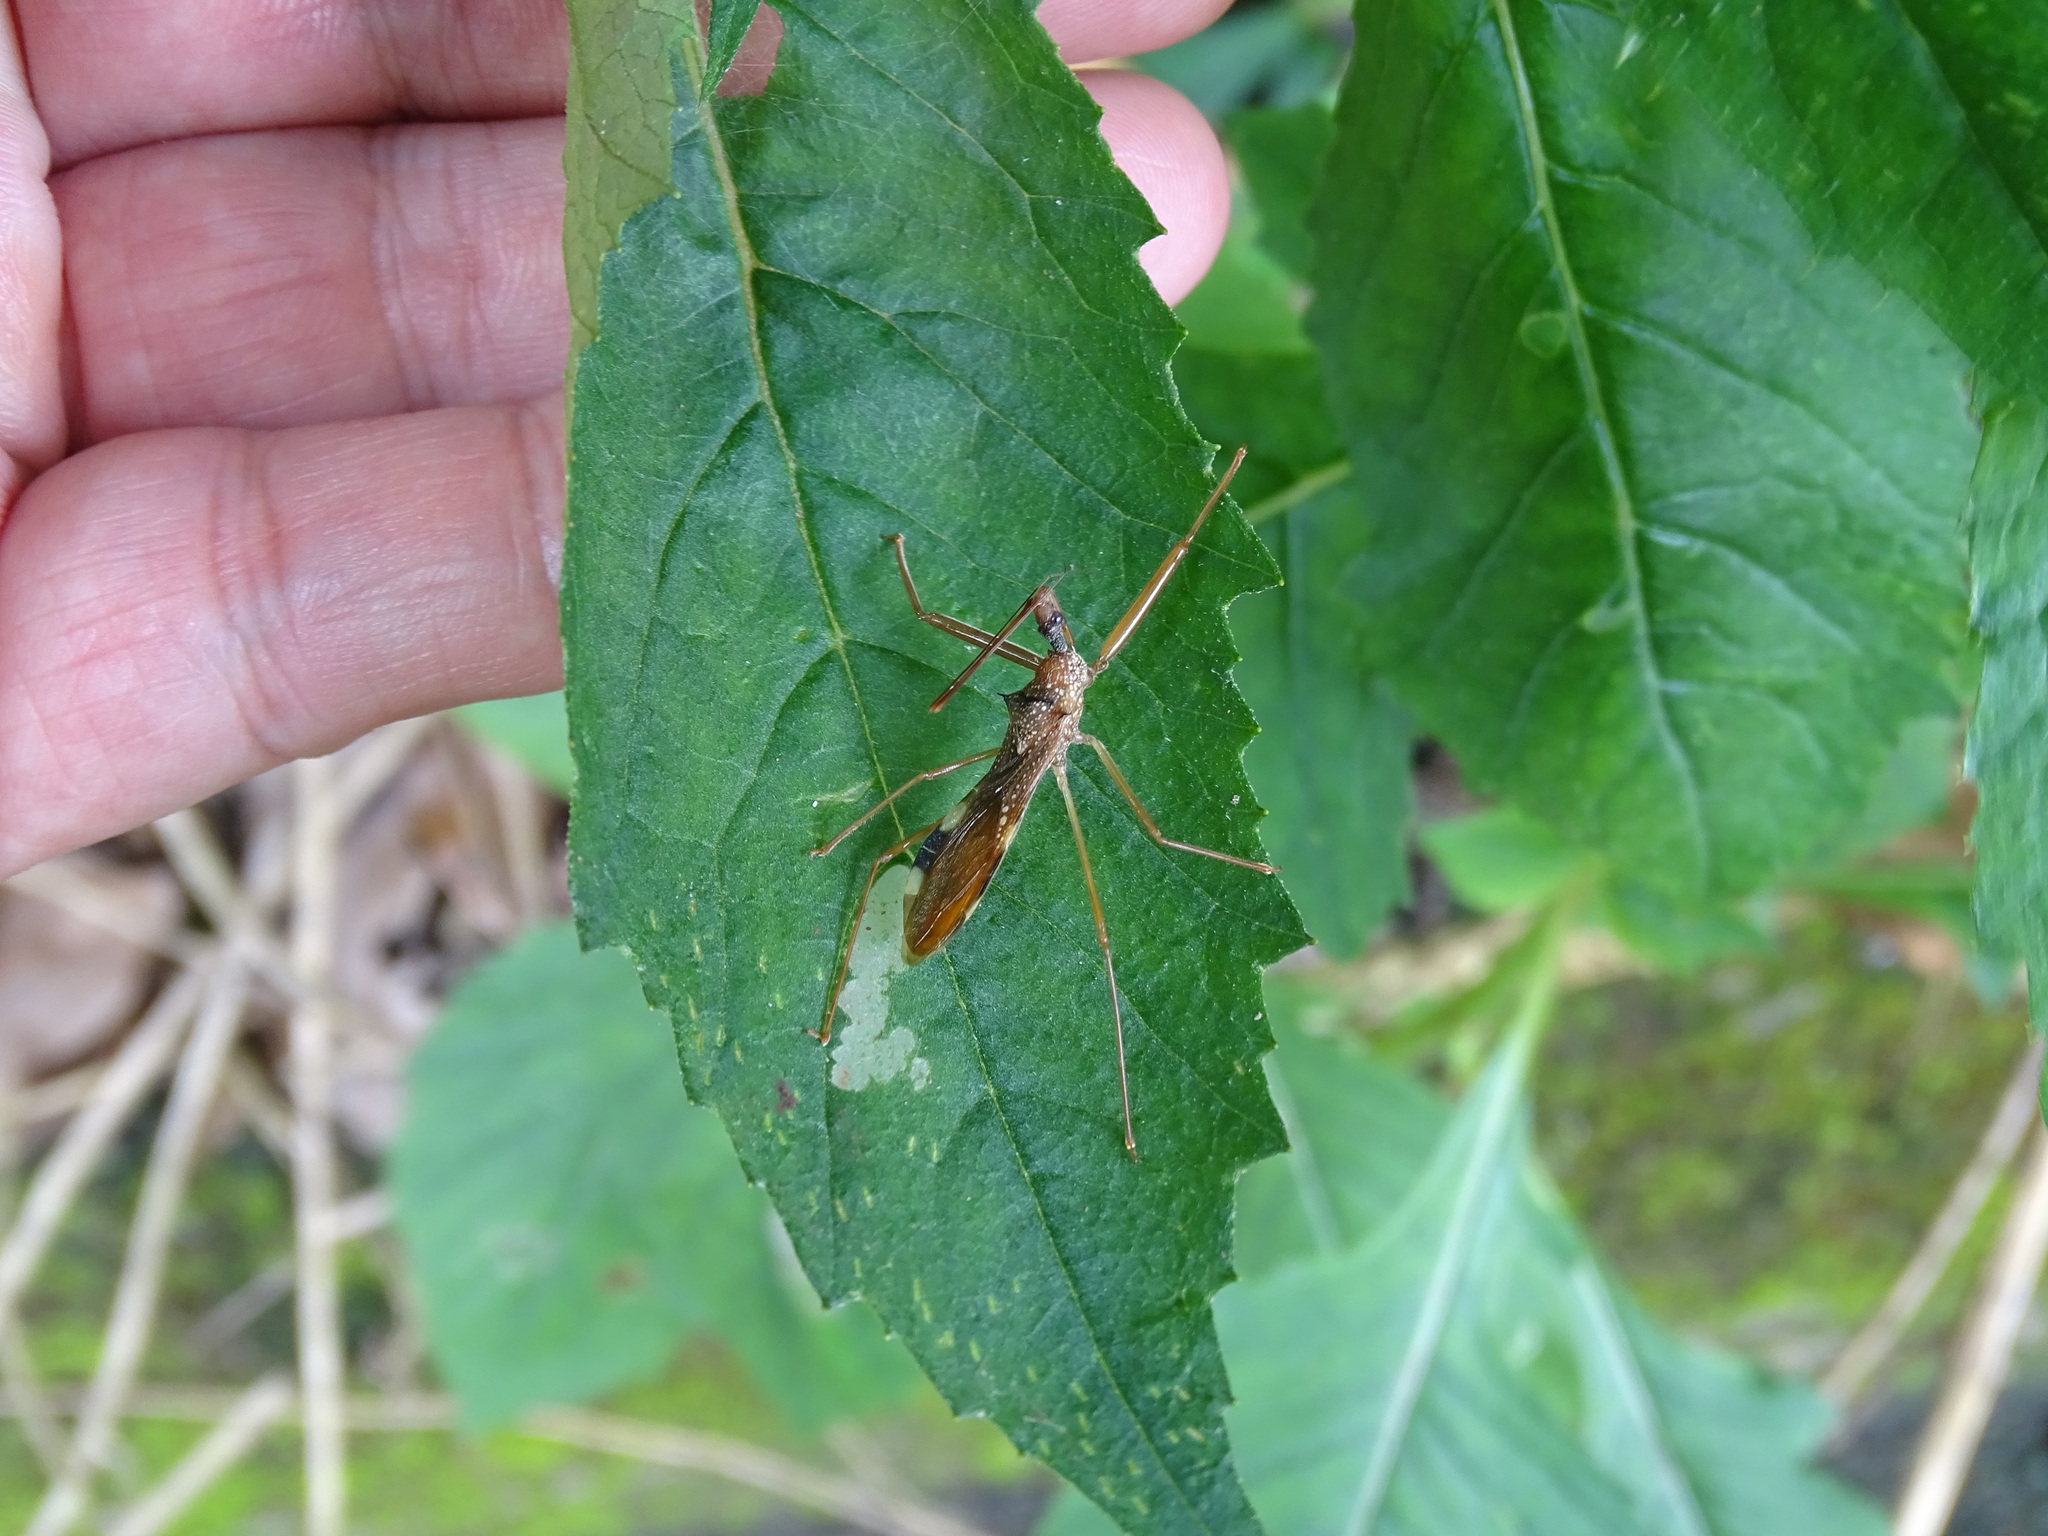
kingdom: Animalia
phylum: Arthropoda
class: Insecta
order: Hemiptera
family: Reduviidae
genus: Epidaus
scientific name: Epidaus sexspinus
